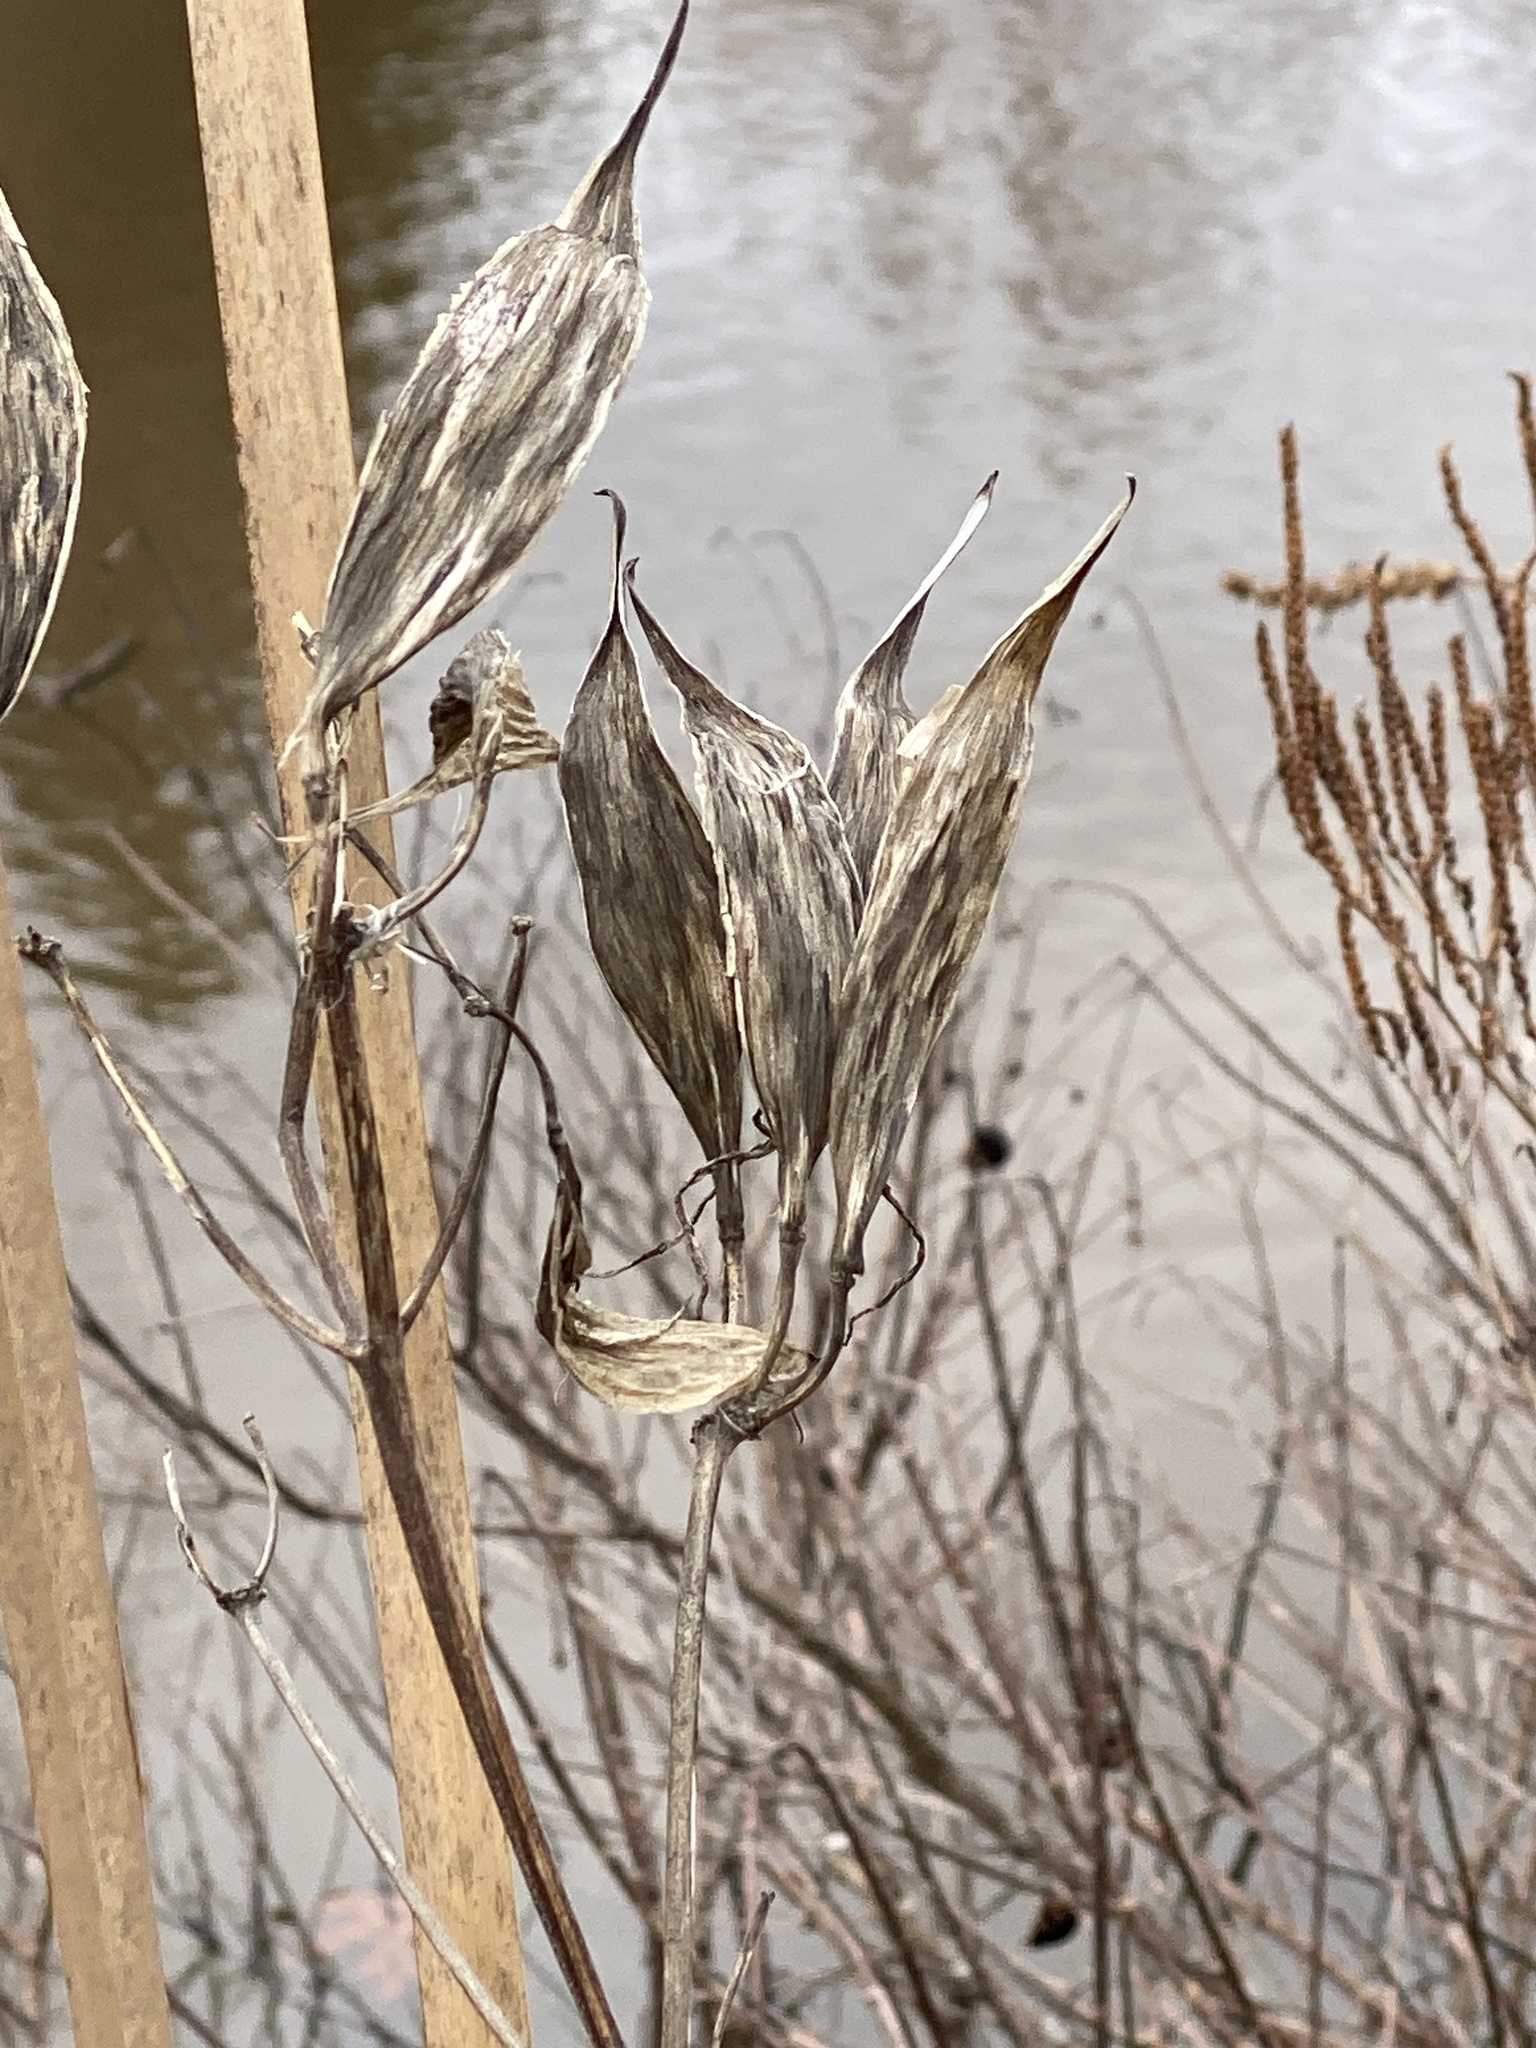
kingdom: Plantae
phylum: Tracheophyta
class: Magnoliopsida
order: Gentianales
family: Apocynaceae
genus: Asclepias
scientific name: Asclepias incarnata
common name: Swamp milkweed
